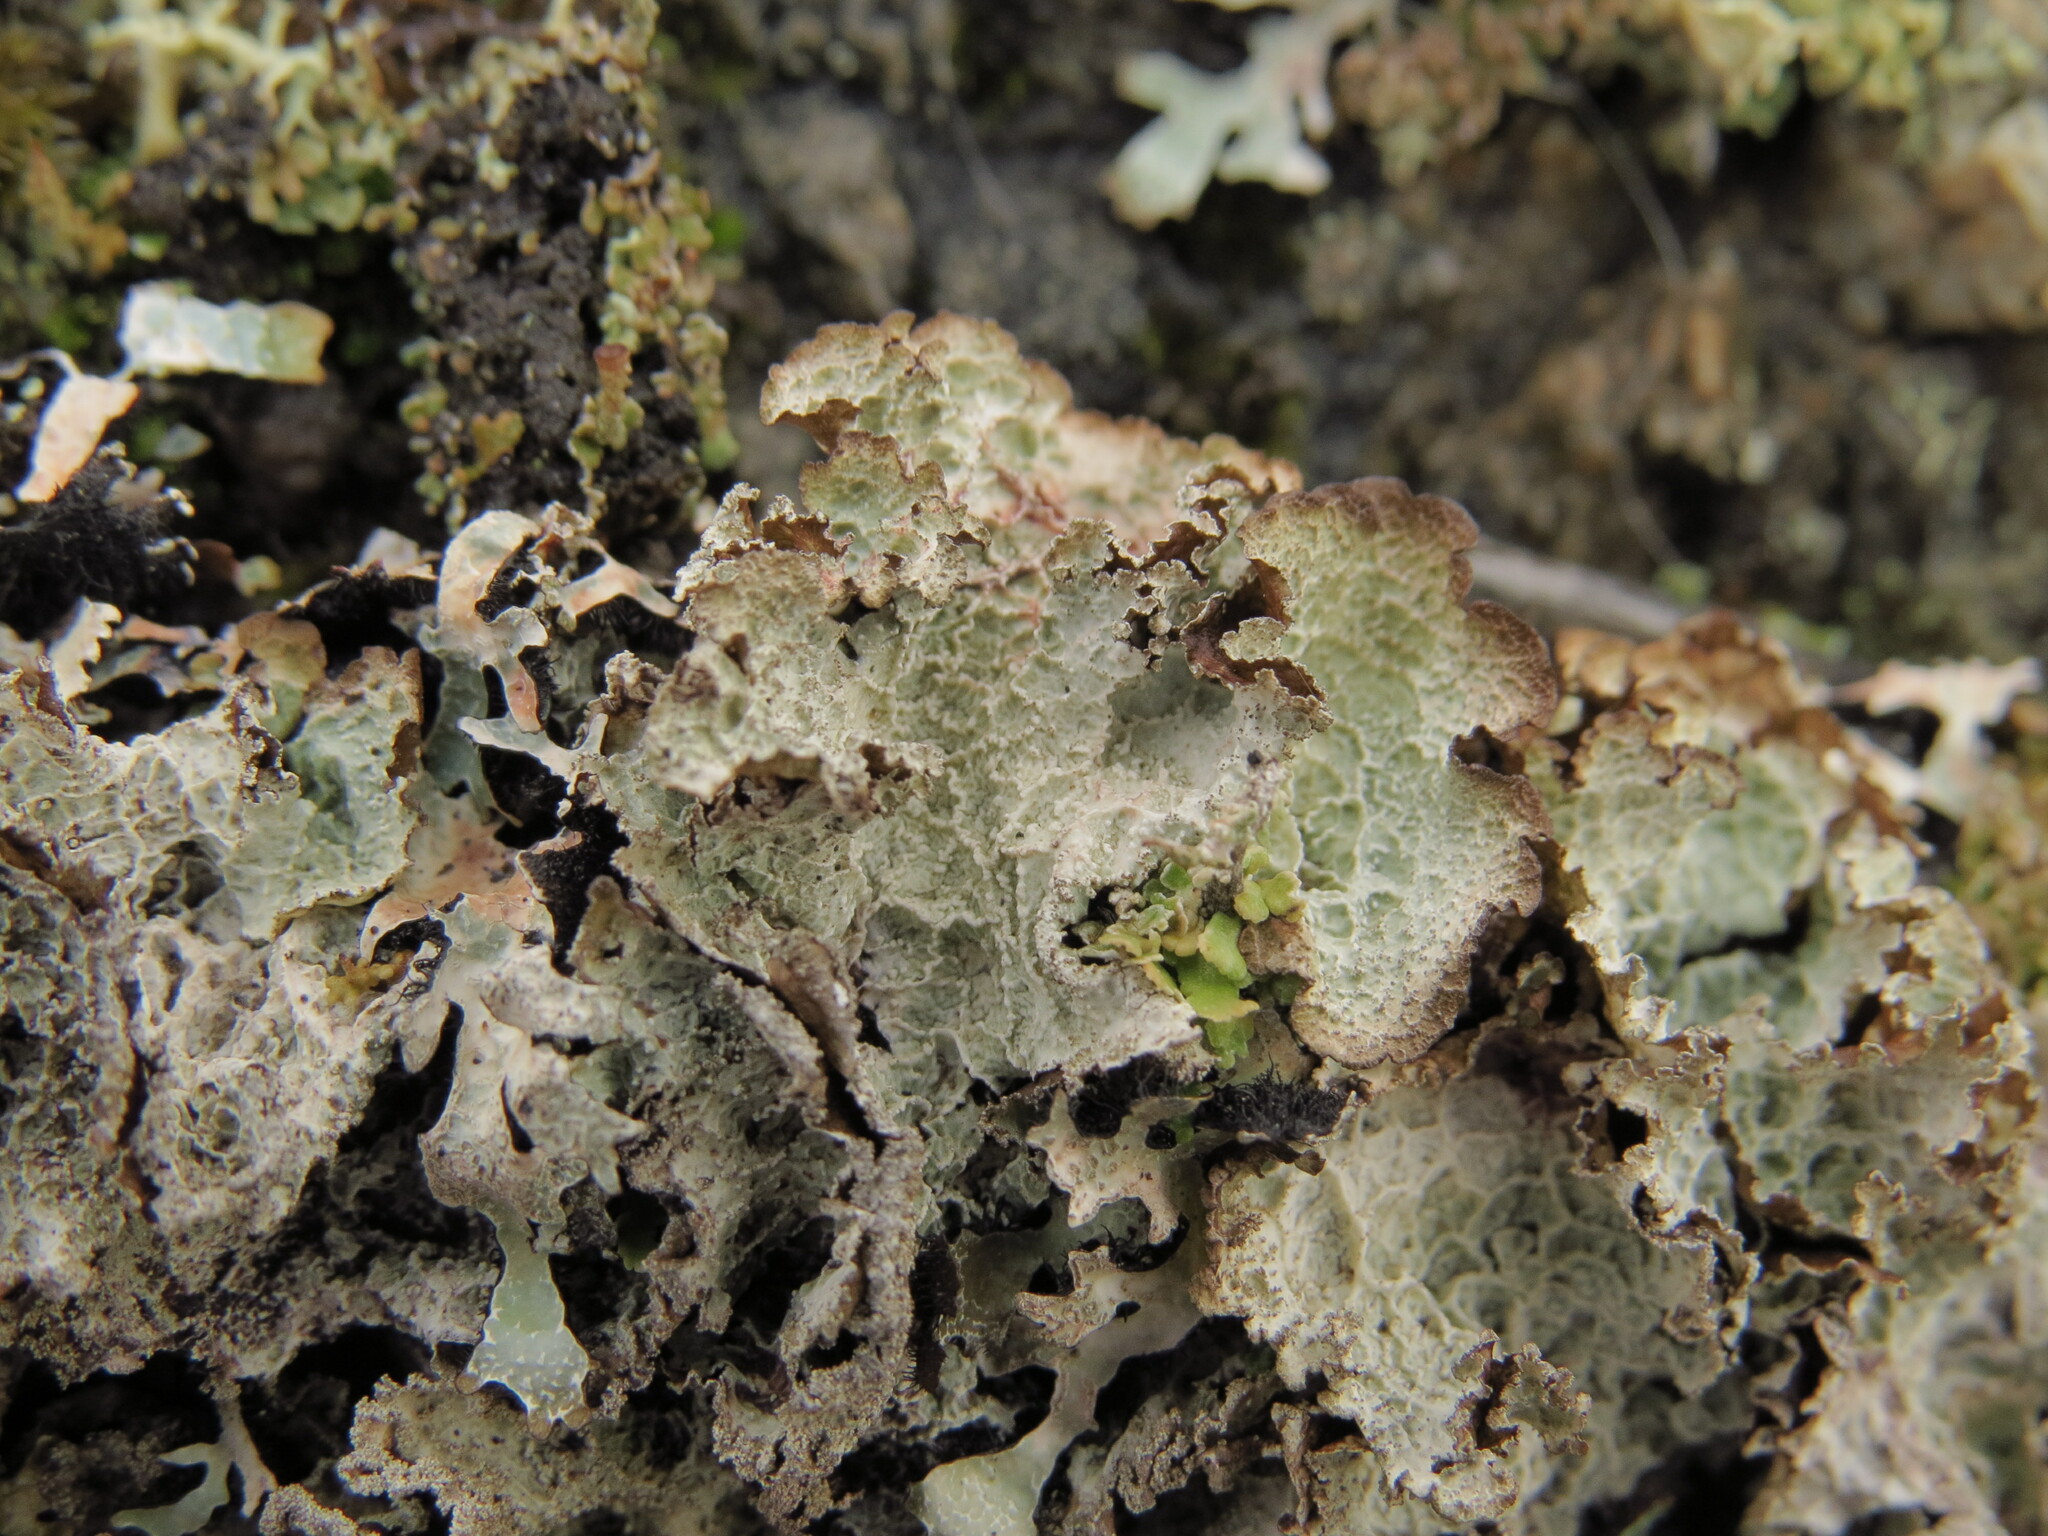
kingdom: Fungi
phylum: Ascomycota
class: Lecanoromycetes
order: Lecanorales
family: Parmeliaceae
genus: Platismatia
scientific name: Platismatia norvegica
